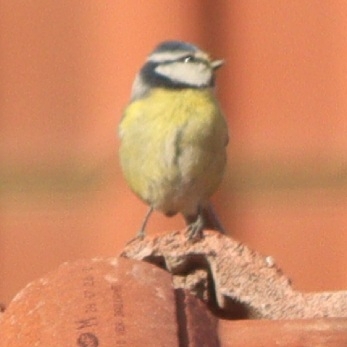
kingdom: Animalia
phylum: Chordata
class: Aves
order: Passeriformes
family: Paridae
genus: Cyanistes
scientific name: Cyanistes caeruleus
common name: Eurasian blue tit
